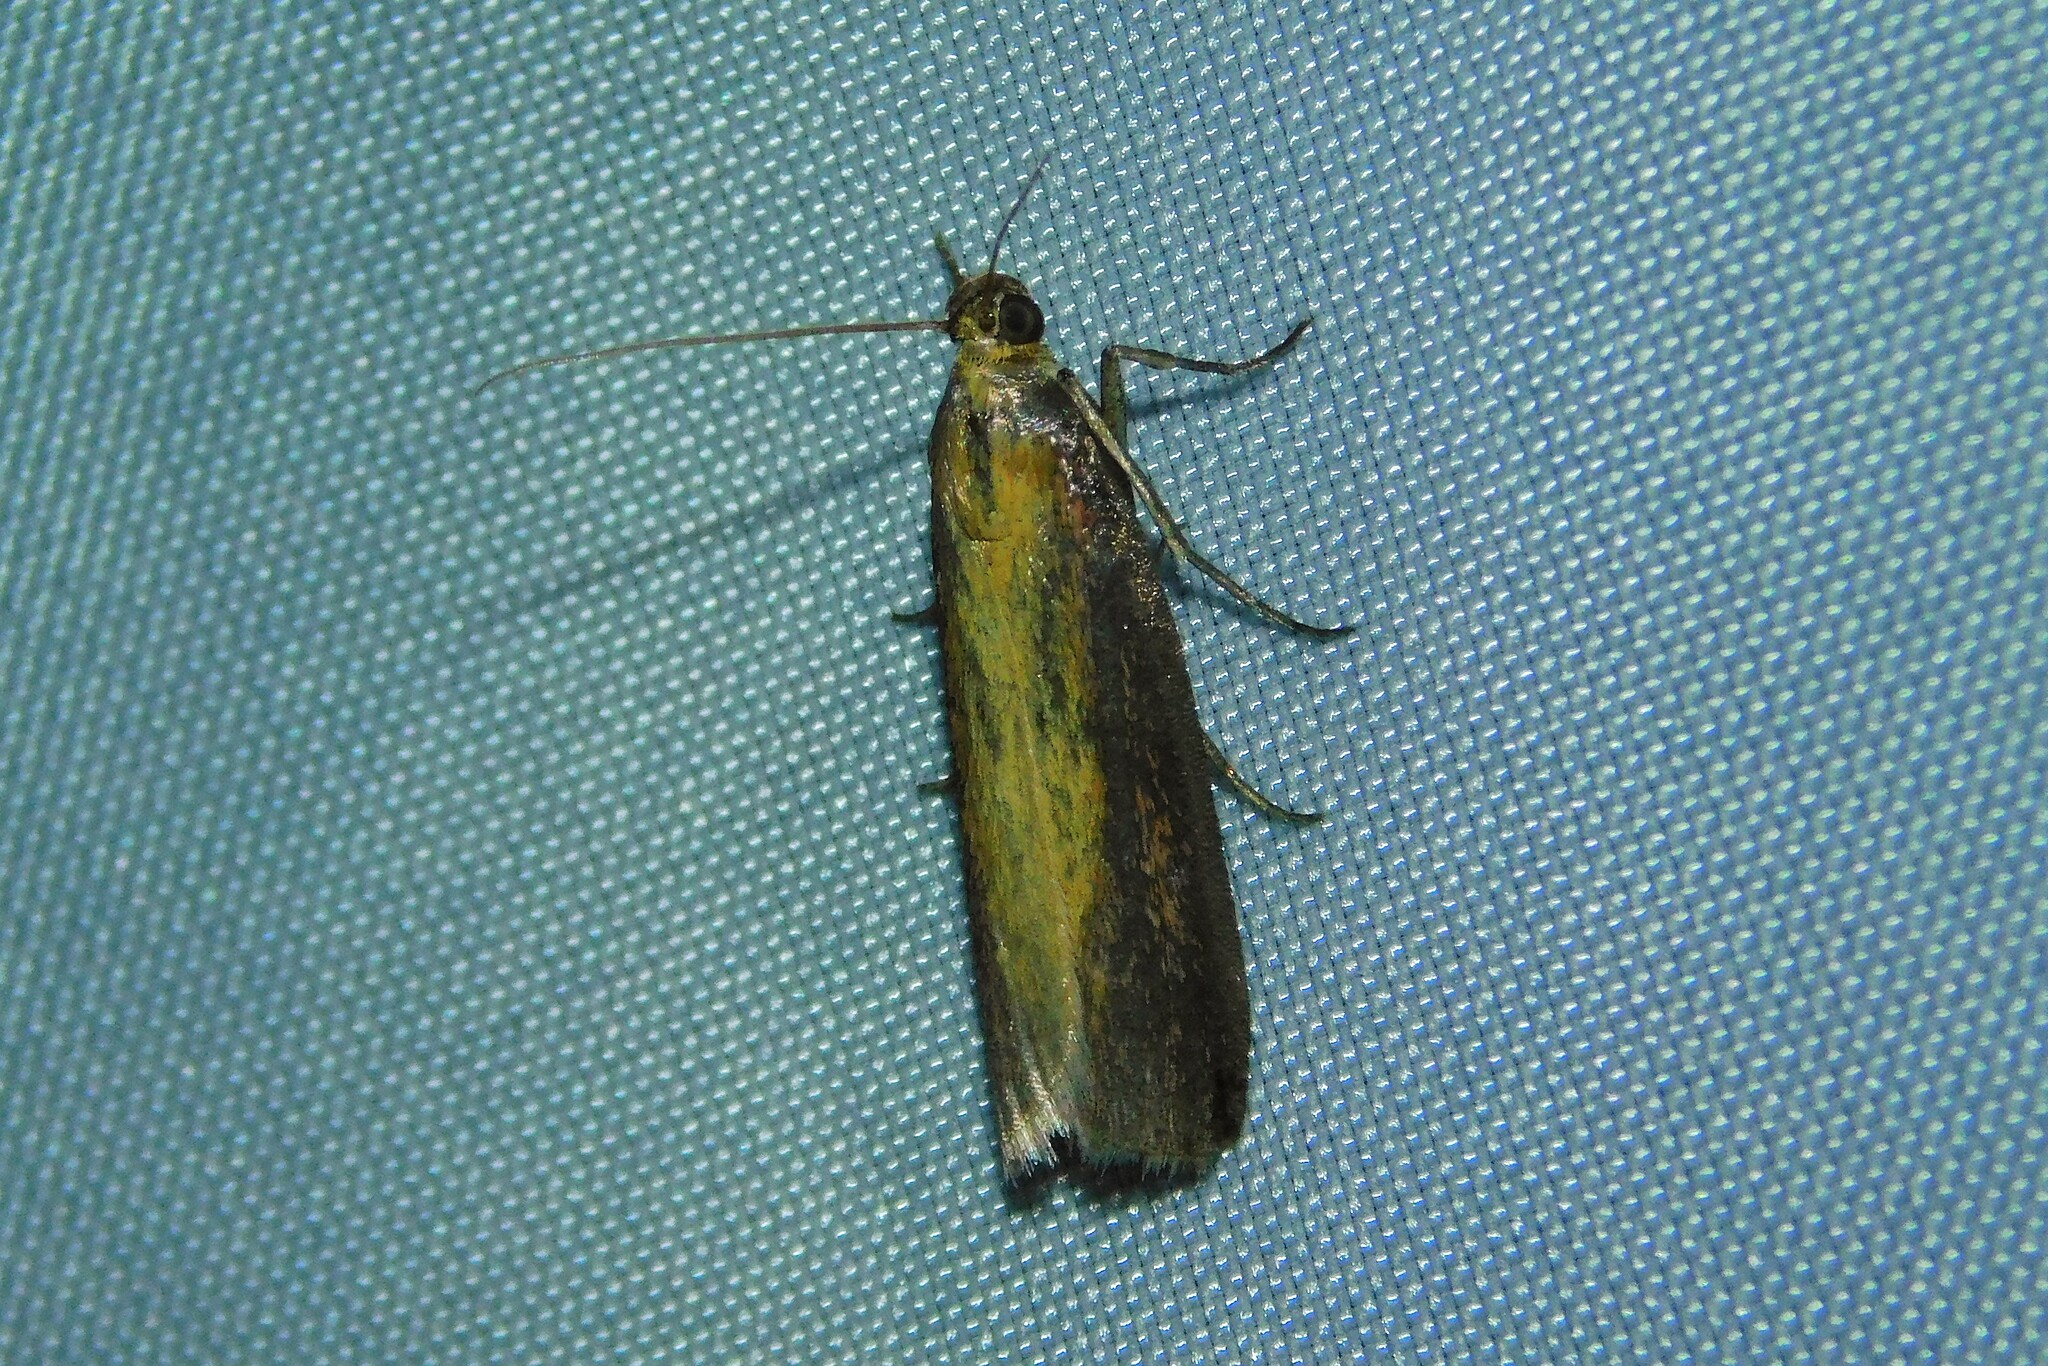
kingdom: Animalia
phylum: Arthropoda
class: Insecta
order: Lepidoptera
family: Pyralidae
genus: Oncocera
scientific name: Oncocera semirubella
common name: Rosy-striped knot-horn
